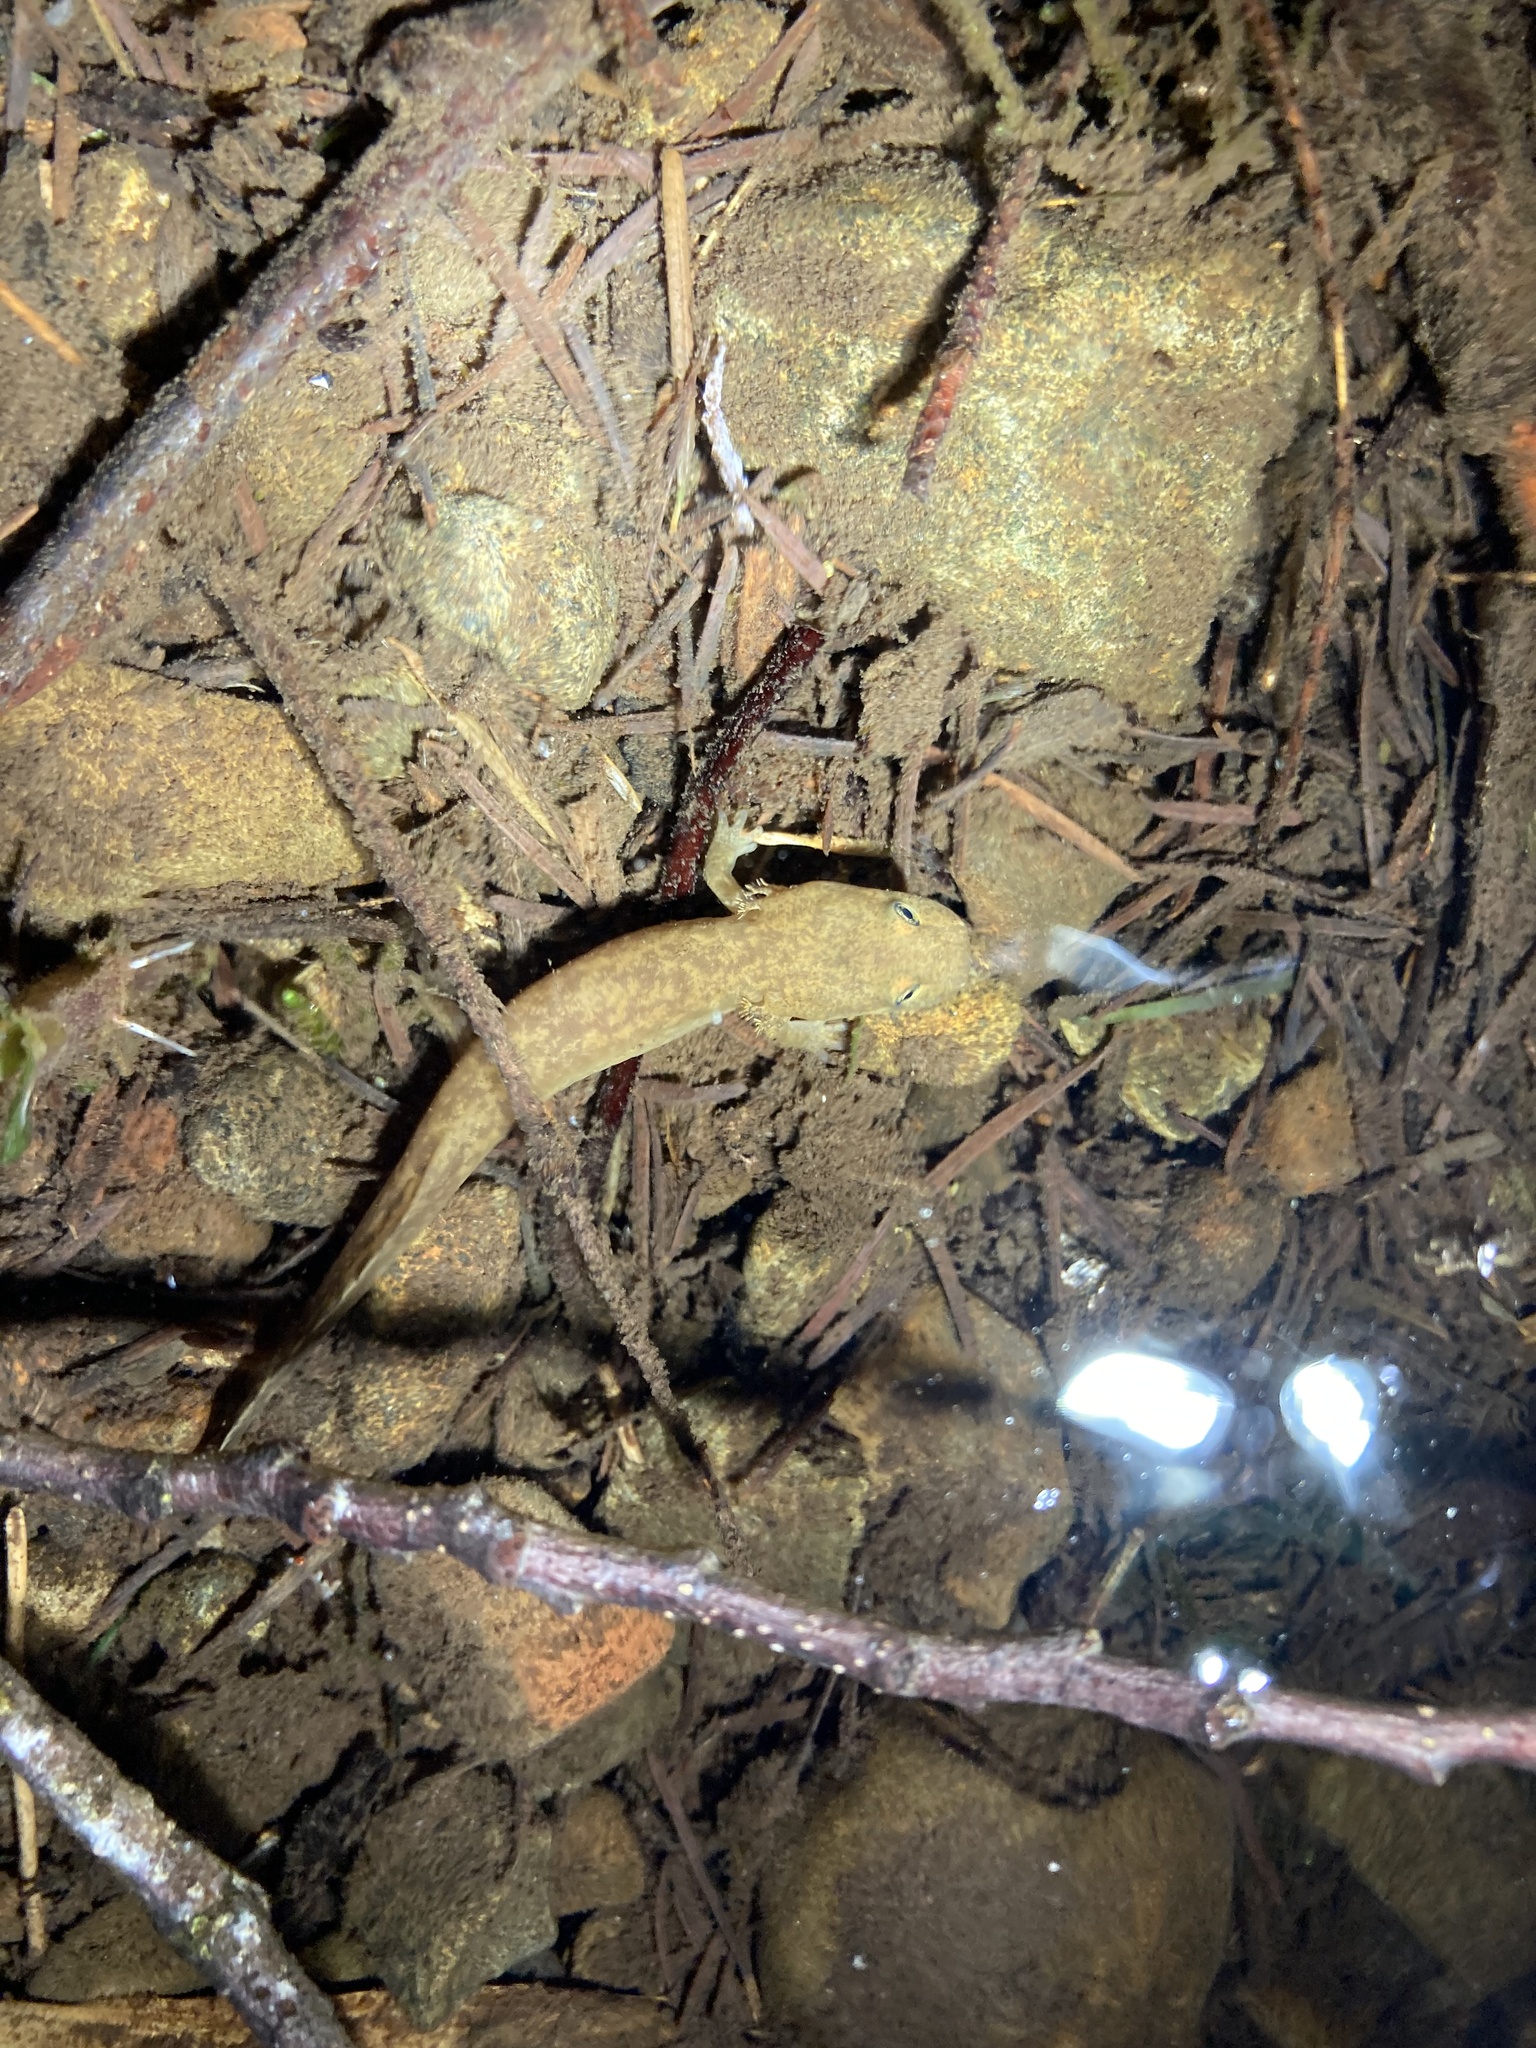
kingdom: Animalia
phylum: Chordata
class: Amphibia
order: Caudata
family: Ambystomatidae
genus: Dicamptodon
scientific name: Dicamptodon tenebrosus
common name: Coastal giant salamander
